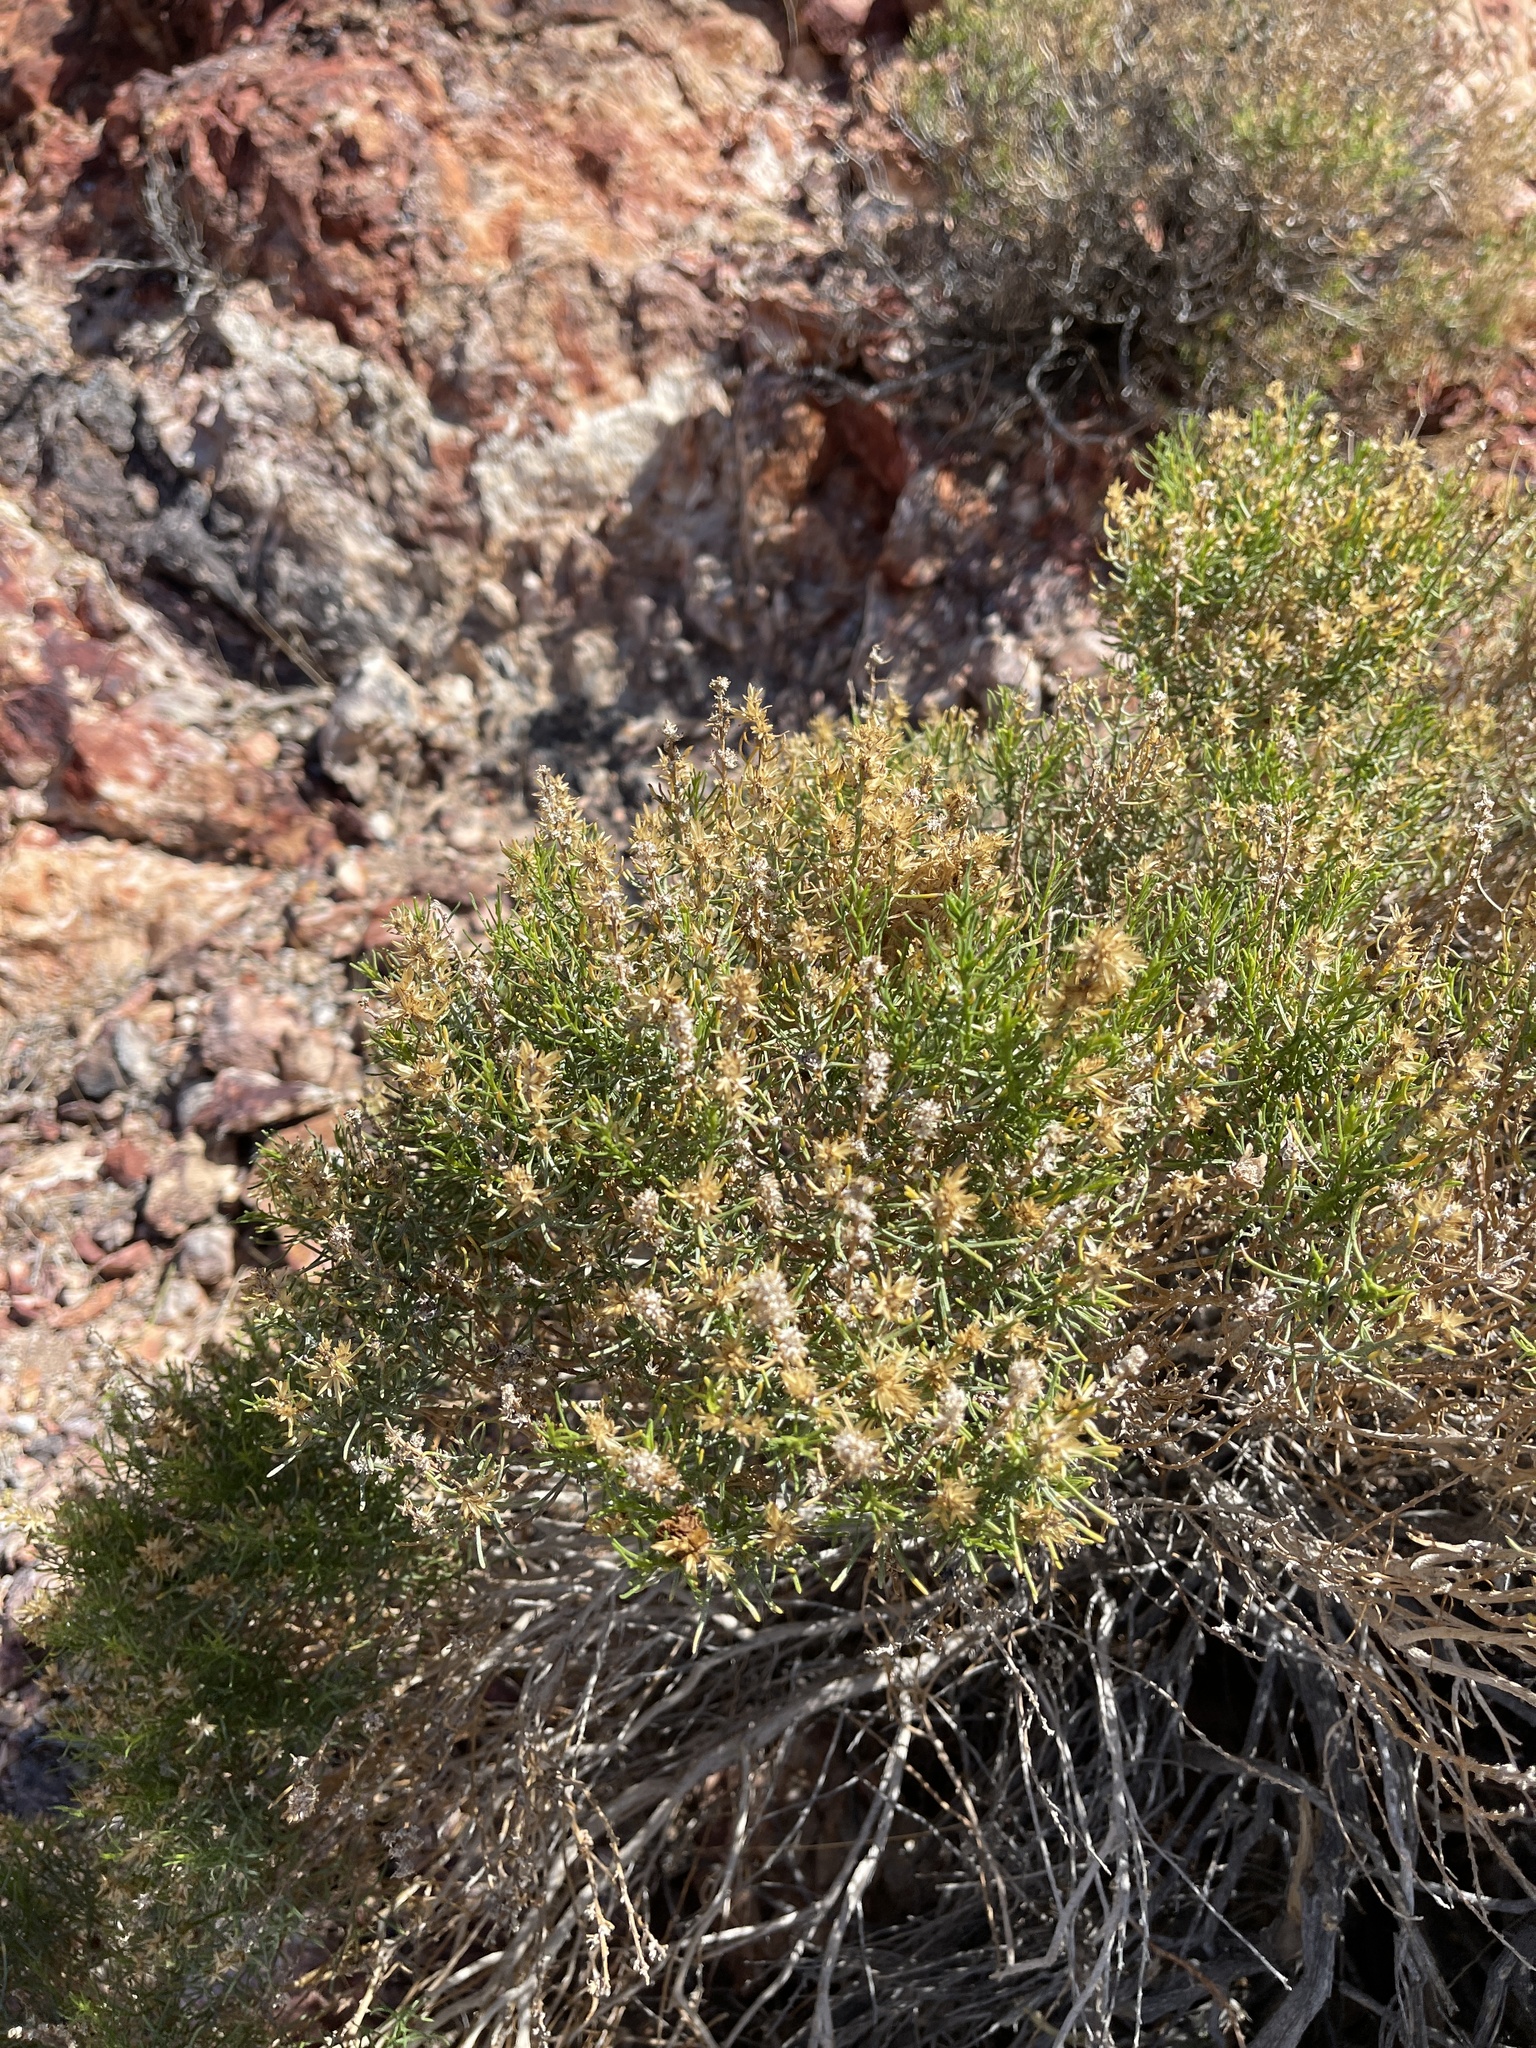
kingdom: Plantae
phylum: Tracheophyta
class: Magnoliopsida
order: Asterales
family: Asteraceae
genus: Peucephyllum
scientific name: Peucephyllum schottii
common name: Pygmy-cedar
